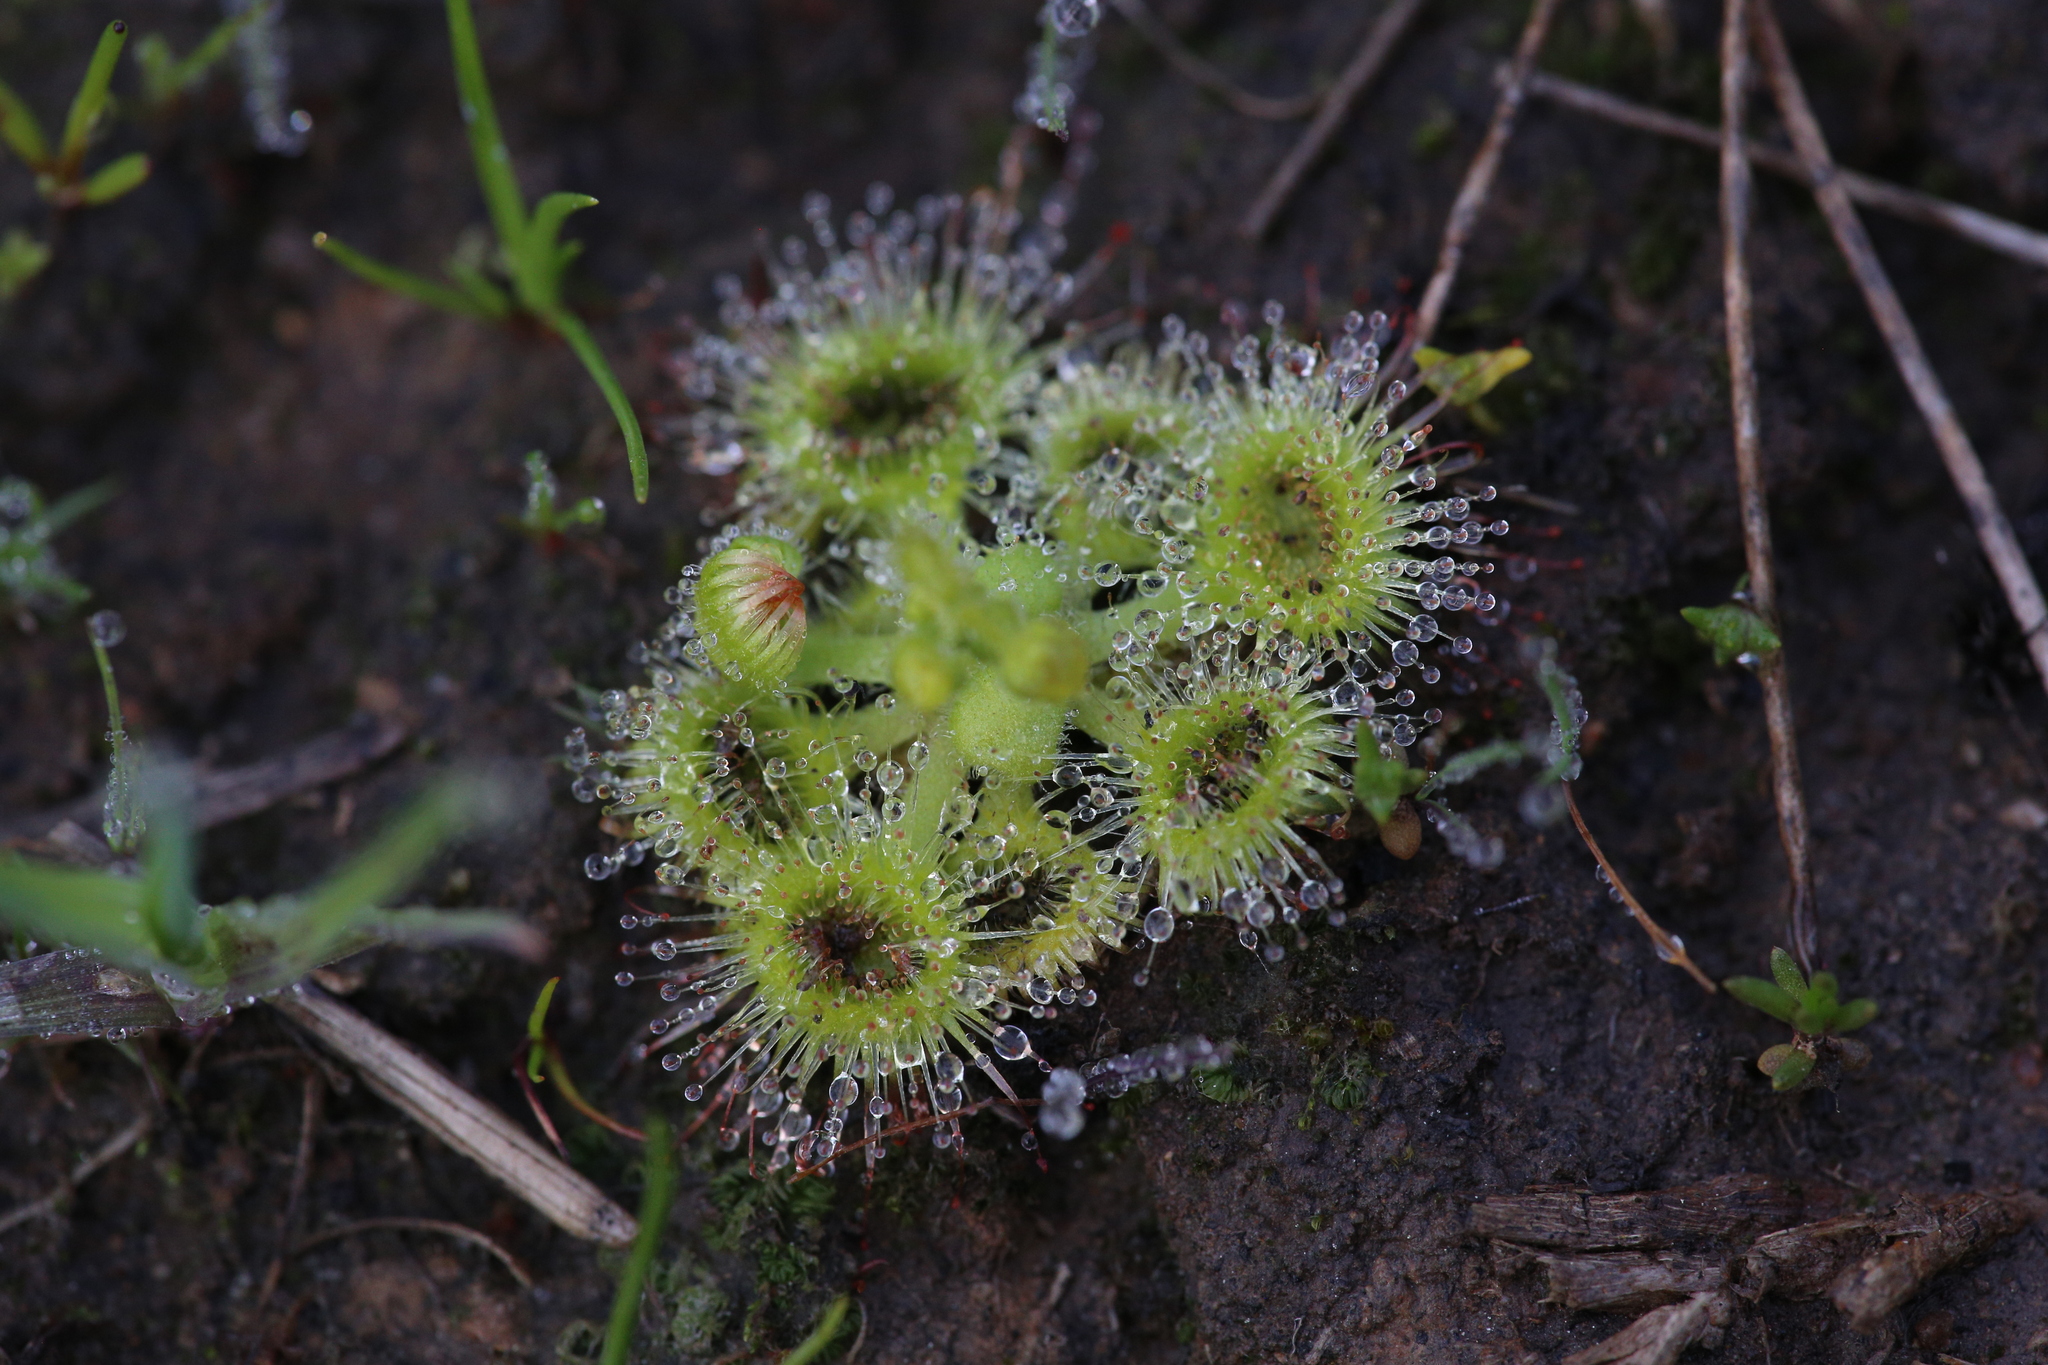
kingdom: Plantae
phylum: Tracheophyta
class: Magnoliopsida
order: Caryophyllales
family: Droseraceae
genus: Drosera
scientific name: Drosera glanduligera
